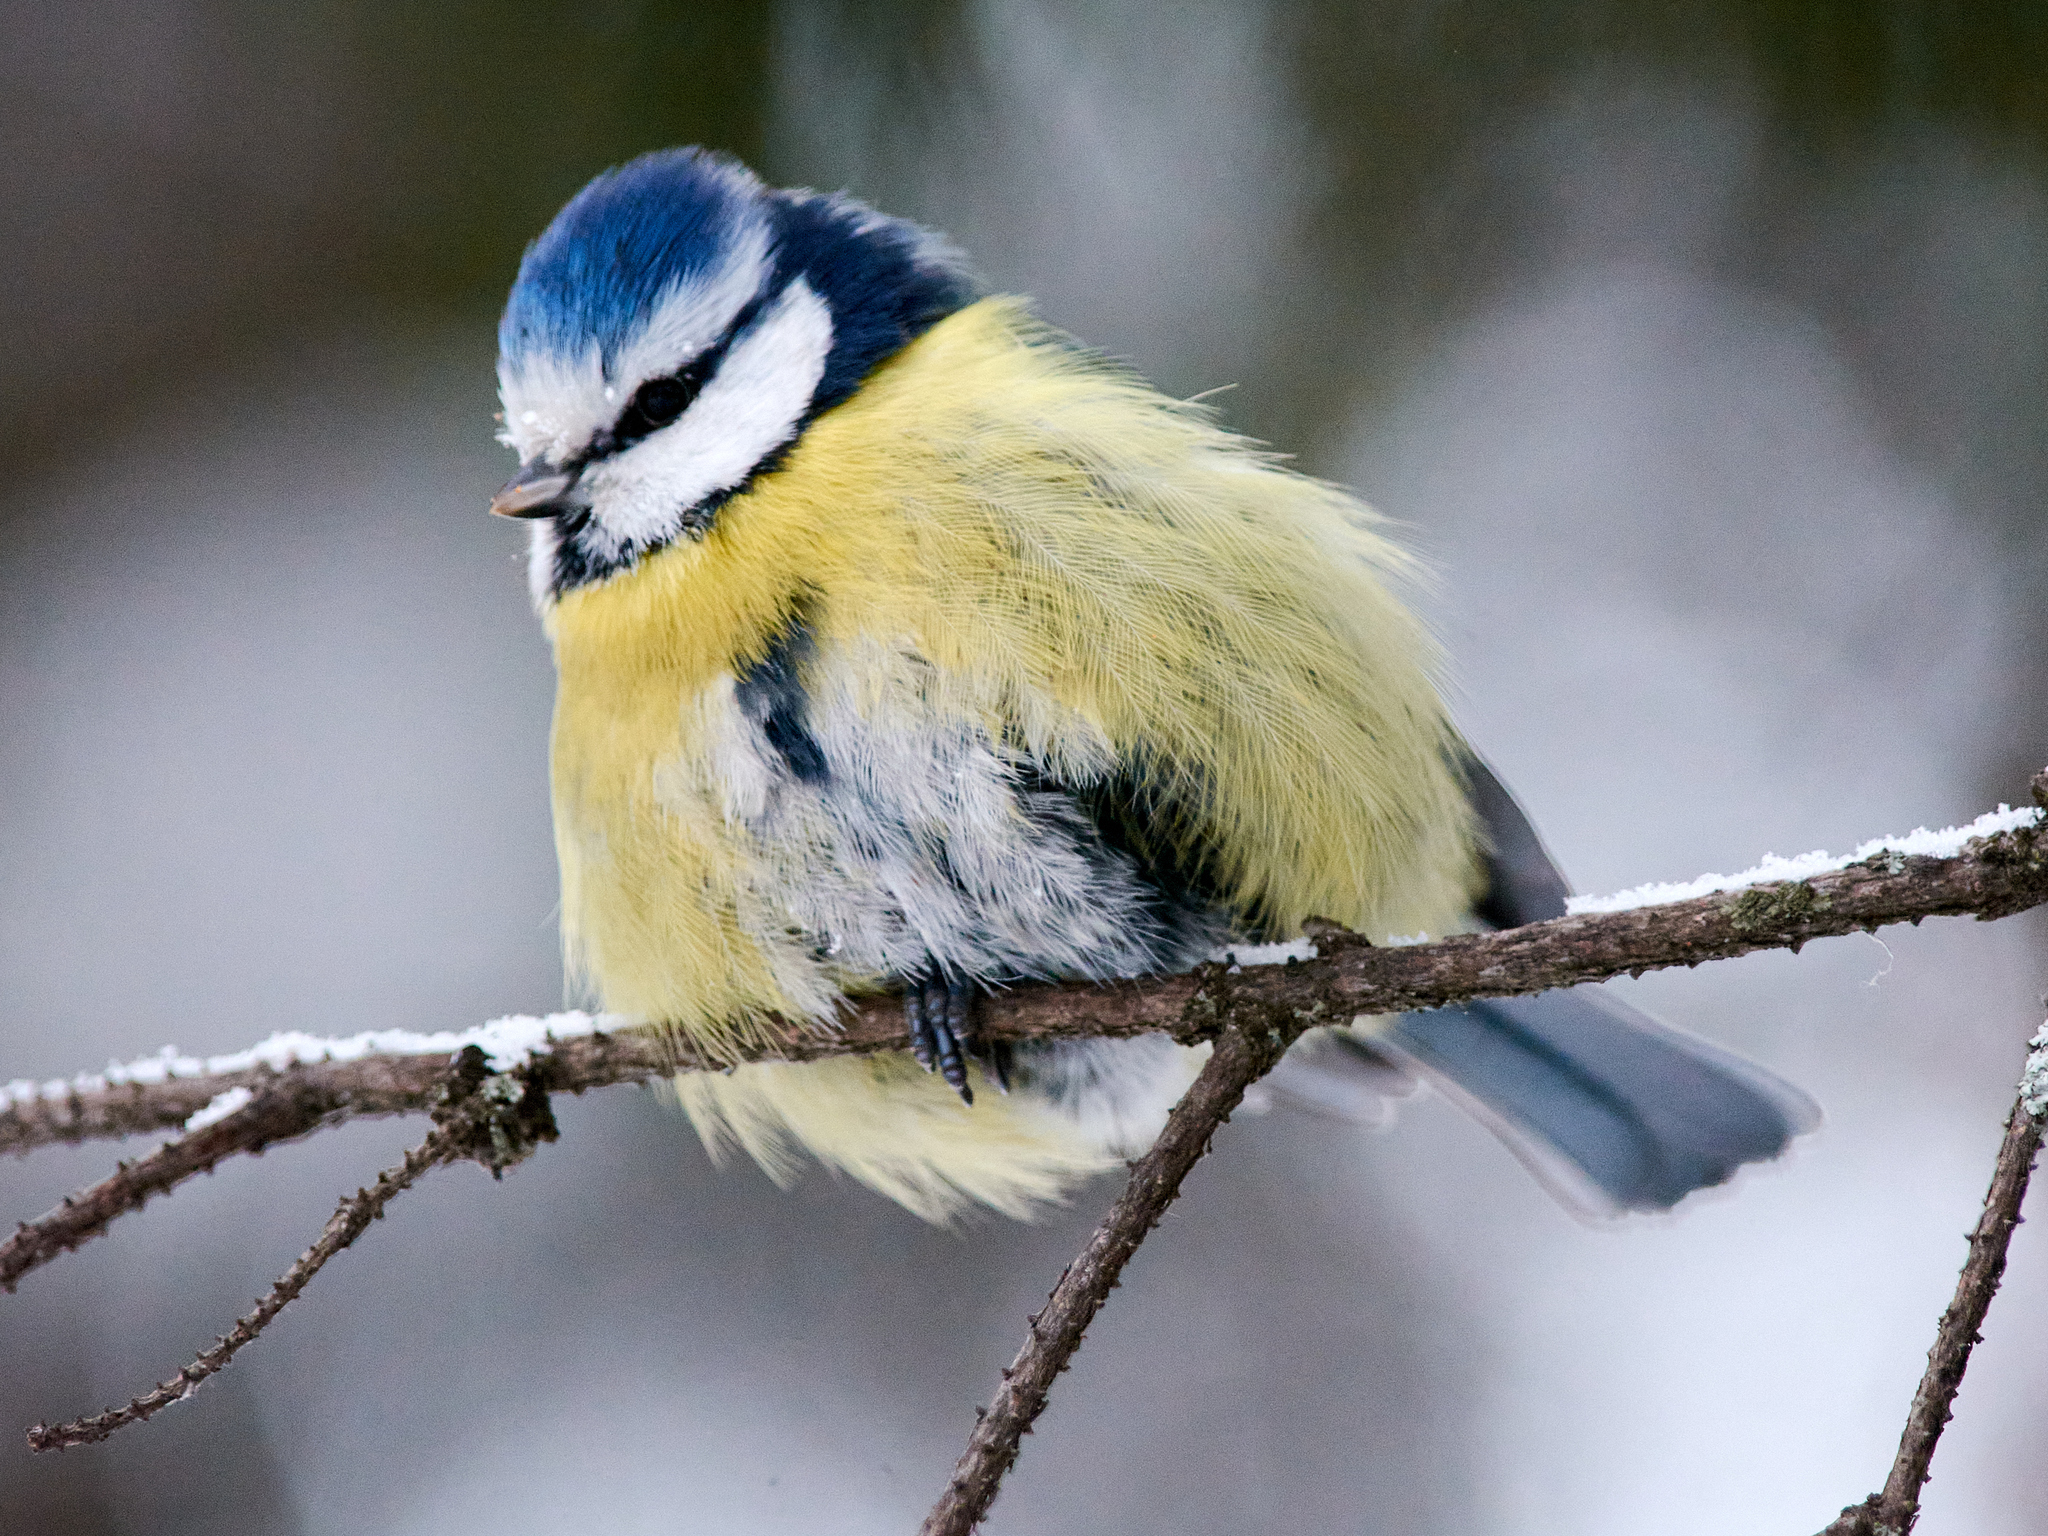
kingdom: Animalia
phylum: Chordata
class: Aves
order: Passeriformes
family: Paridae
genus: Cyanistes
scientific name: Cyanistes caeruleus
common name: Eurasian blue tit
